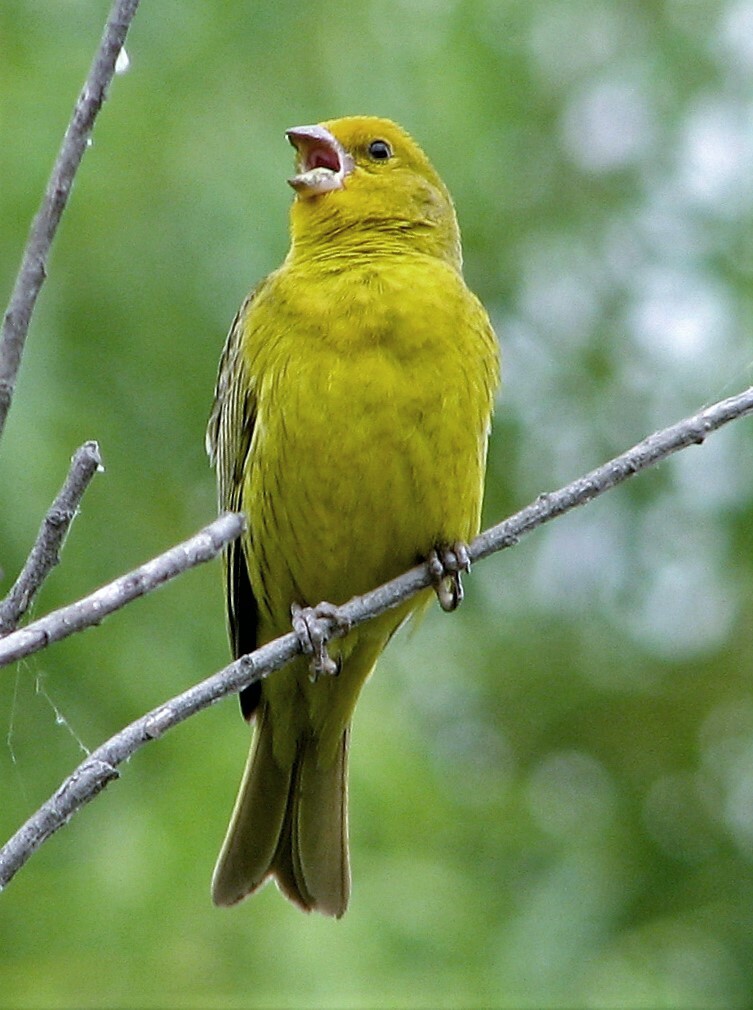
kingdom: Animalia
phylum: Chordata
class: Aves
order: Passeriformes
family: Thraupidae
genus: Sicalis
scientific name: Sicalis flaveola
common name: Saffron finch
